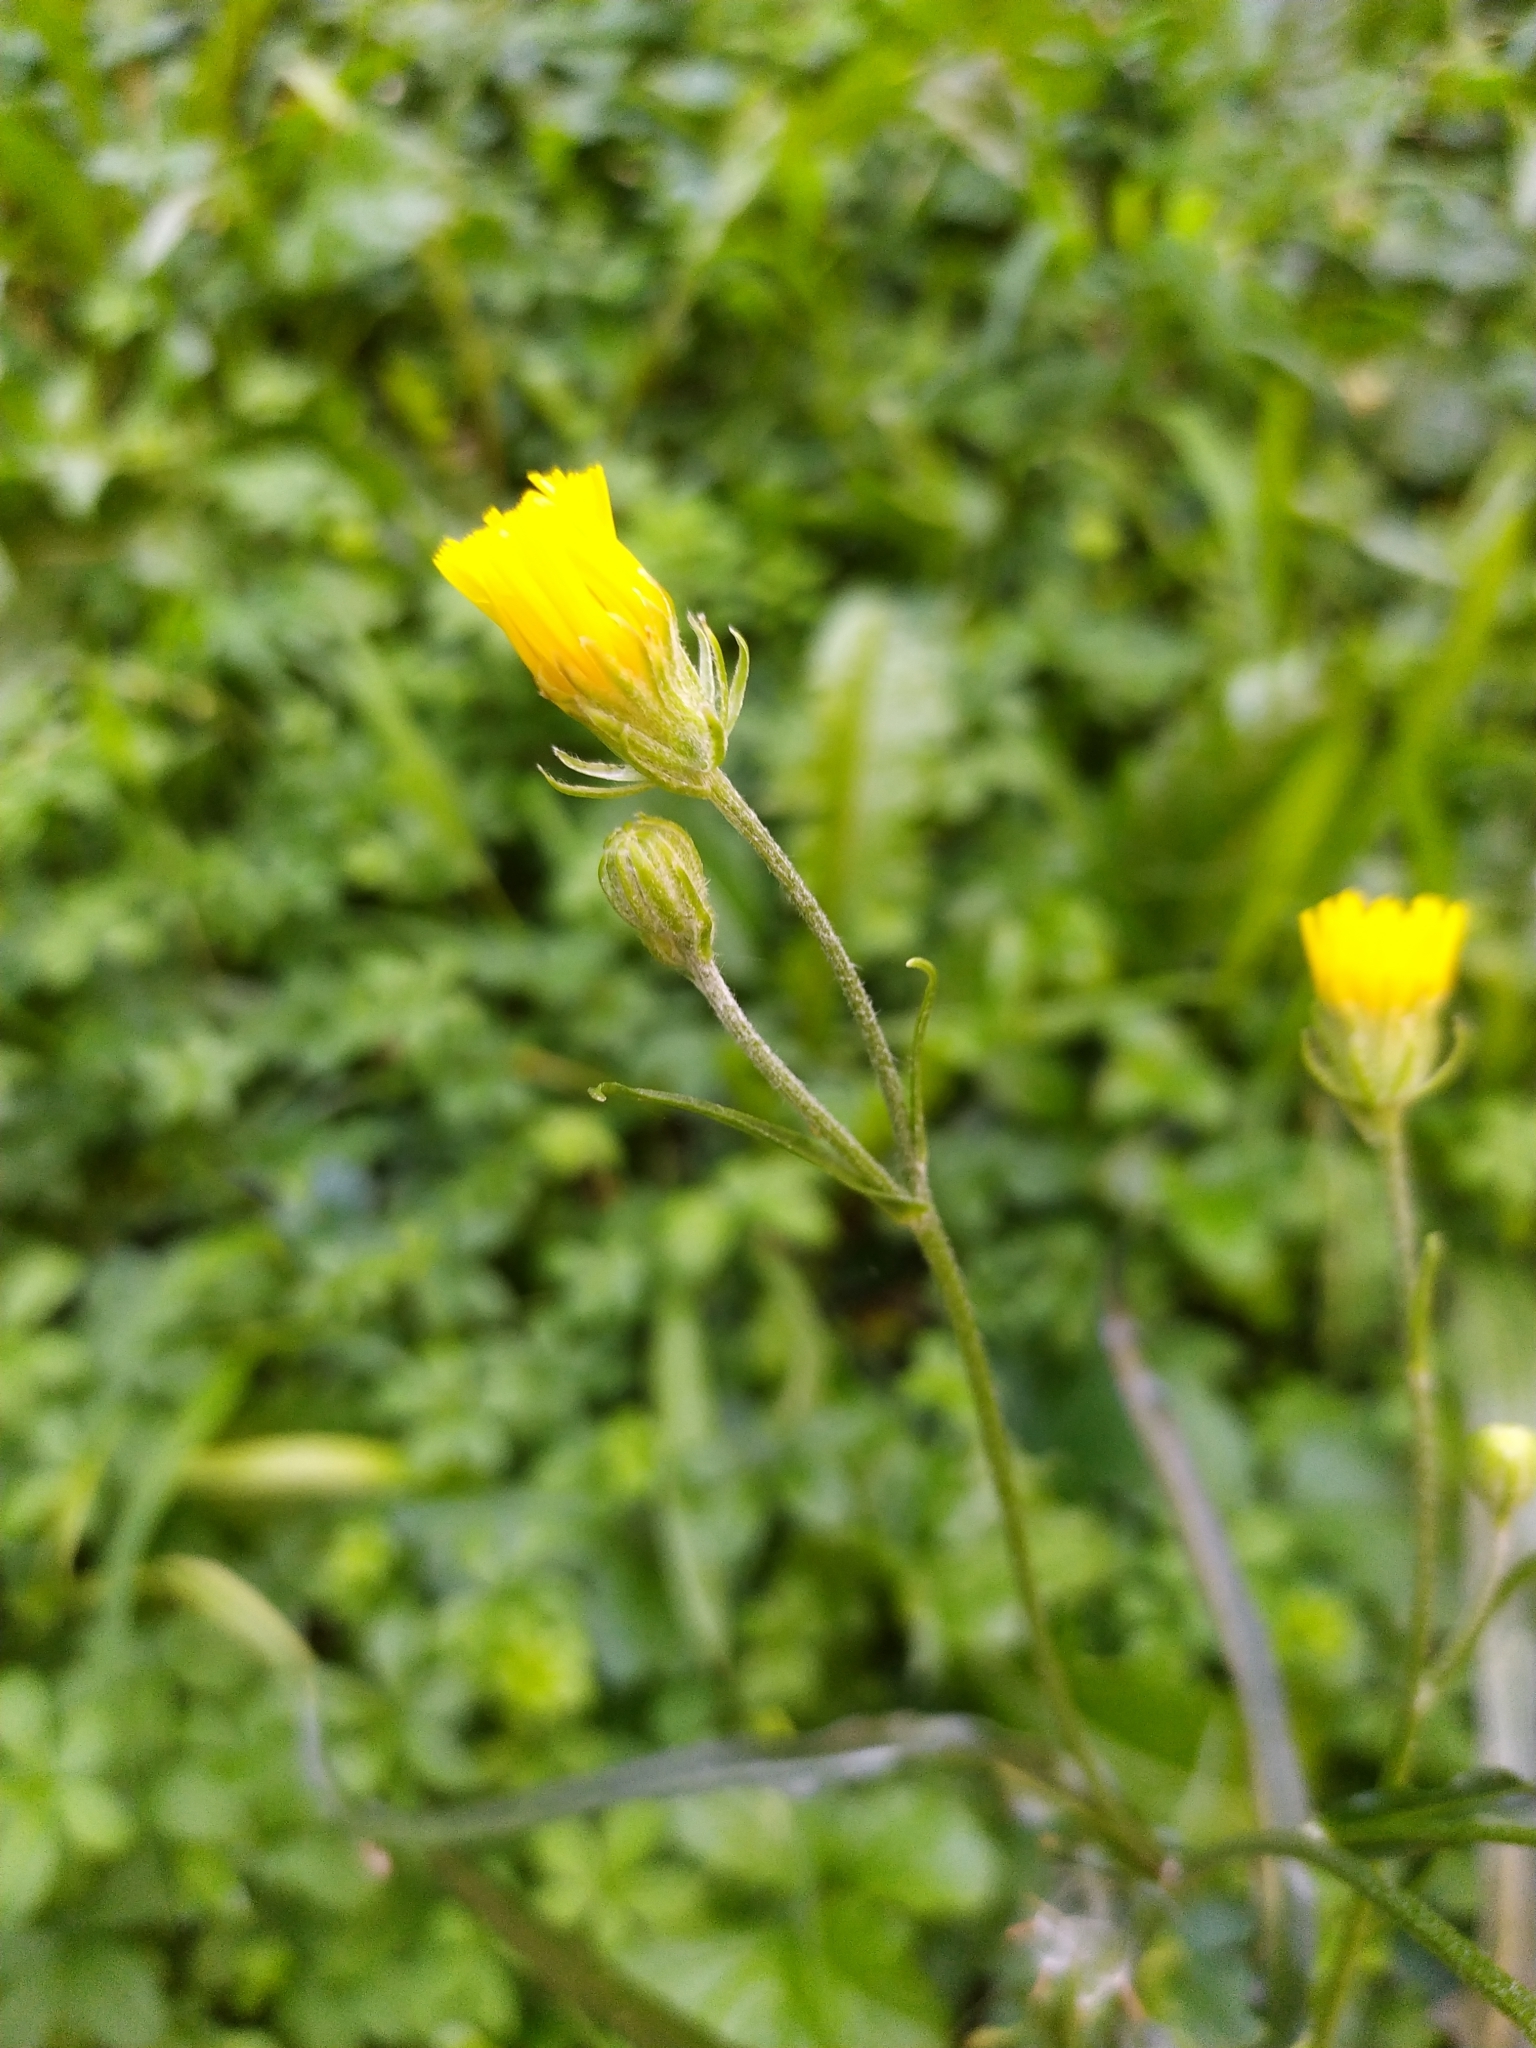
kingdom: Plantae
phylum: Tracheophyta
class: Magnoliopsida
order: Asterales
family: Asteraceae
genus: Crepis
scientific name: Crepis capillaris
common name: Smooth hawksbeard
